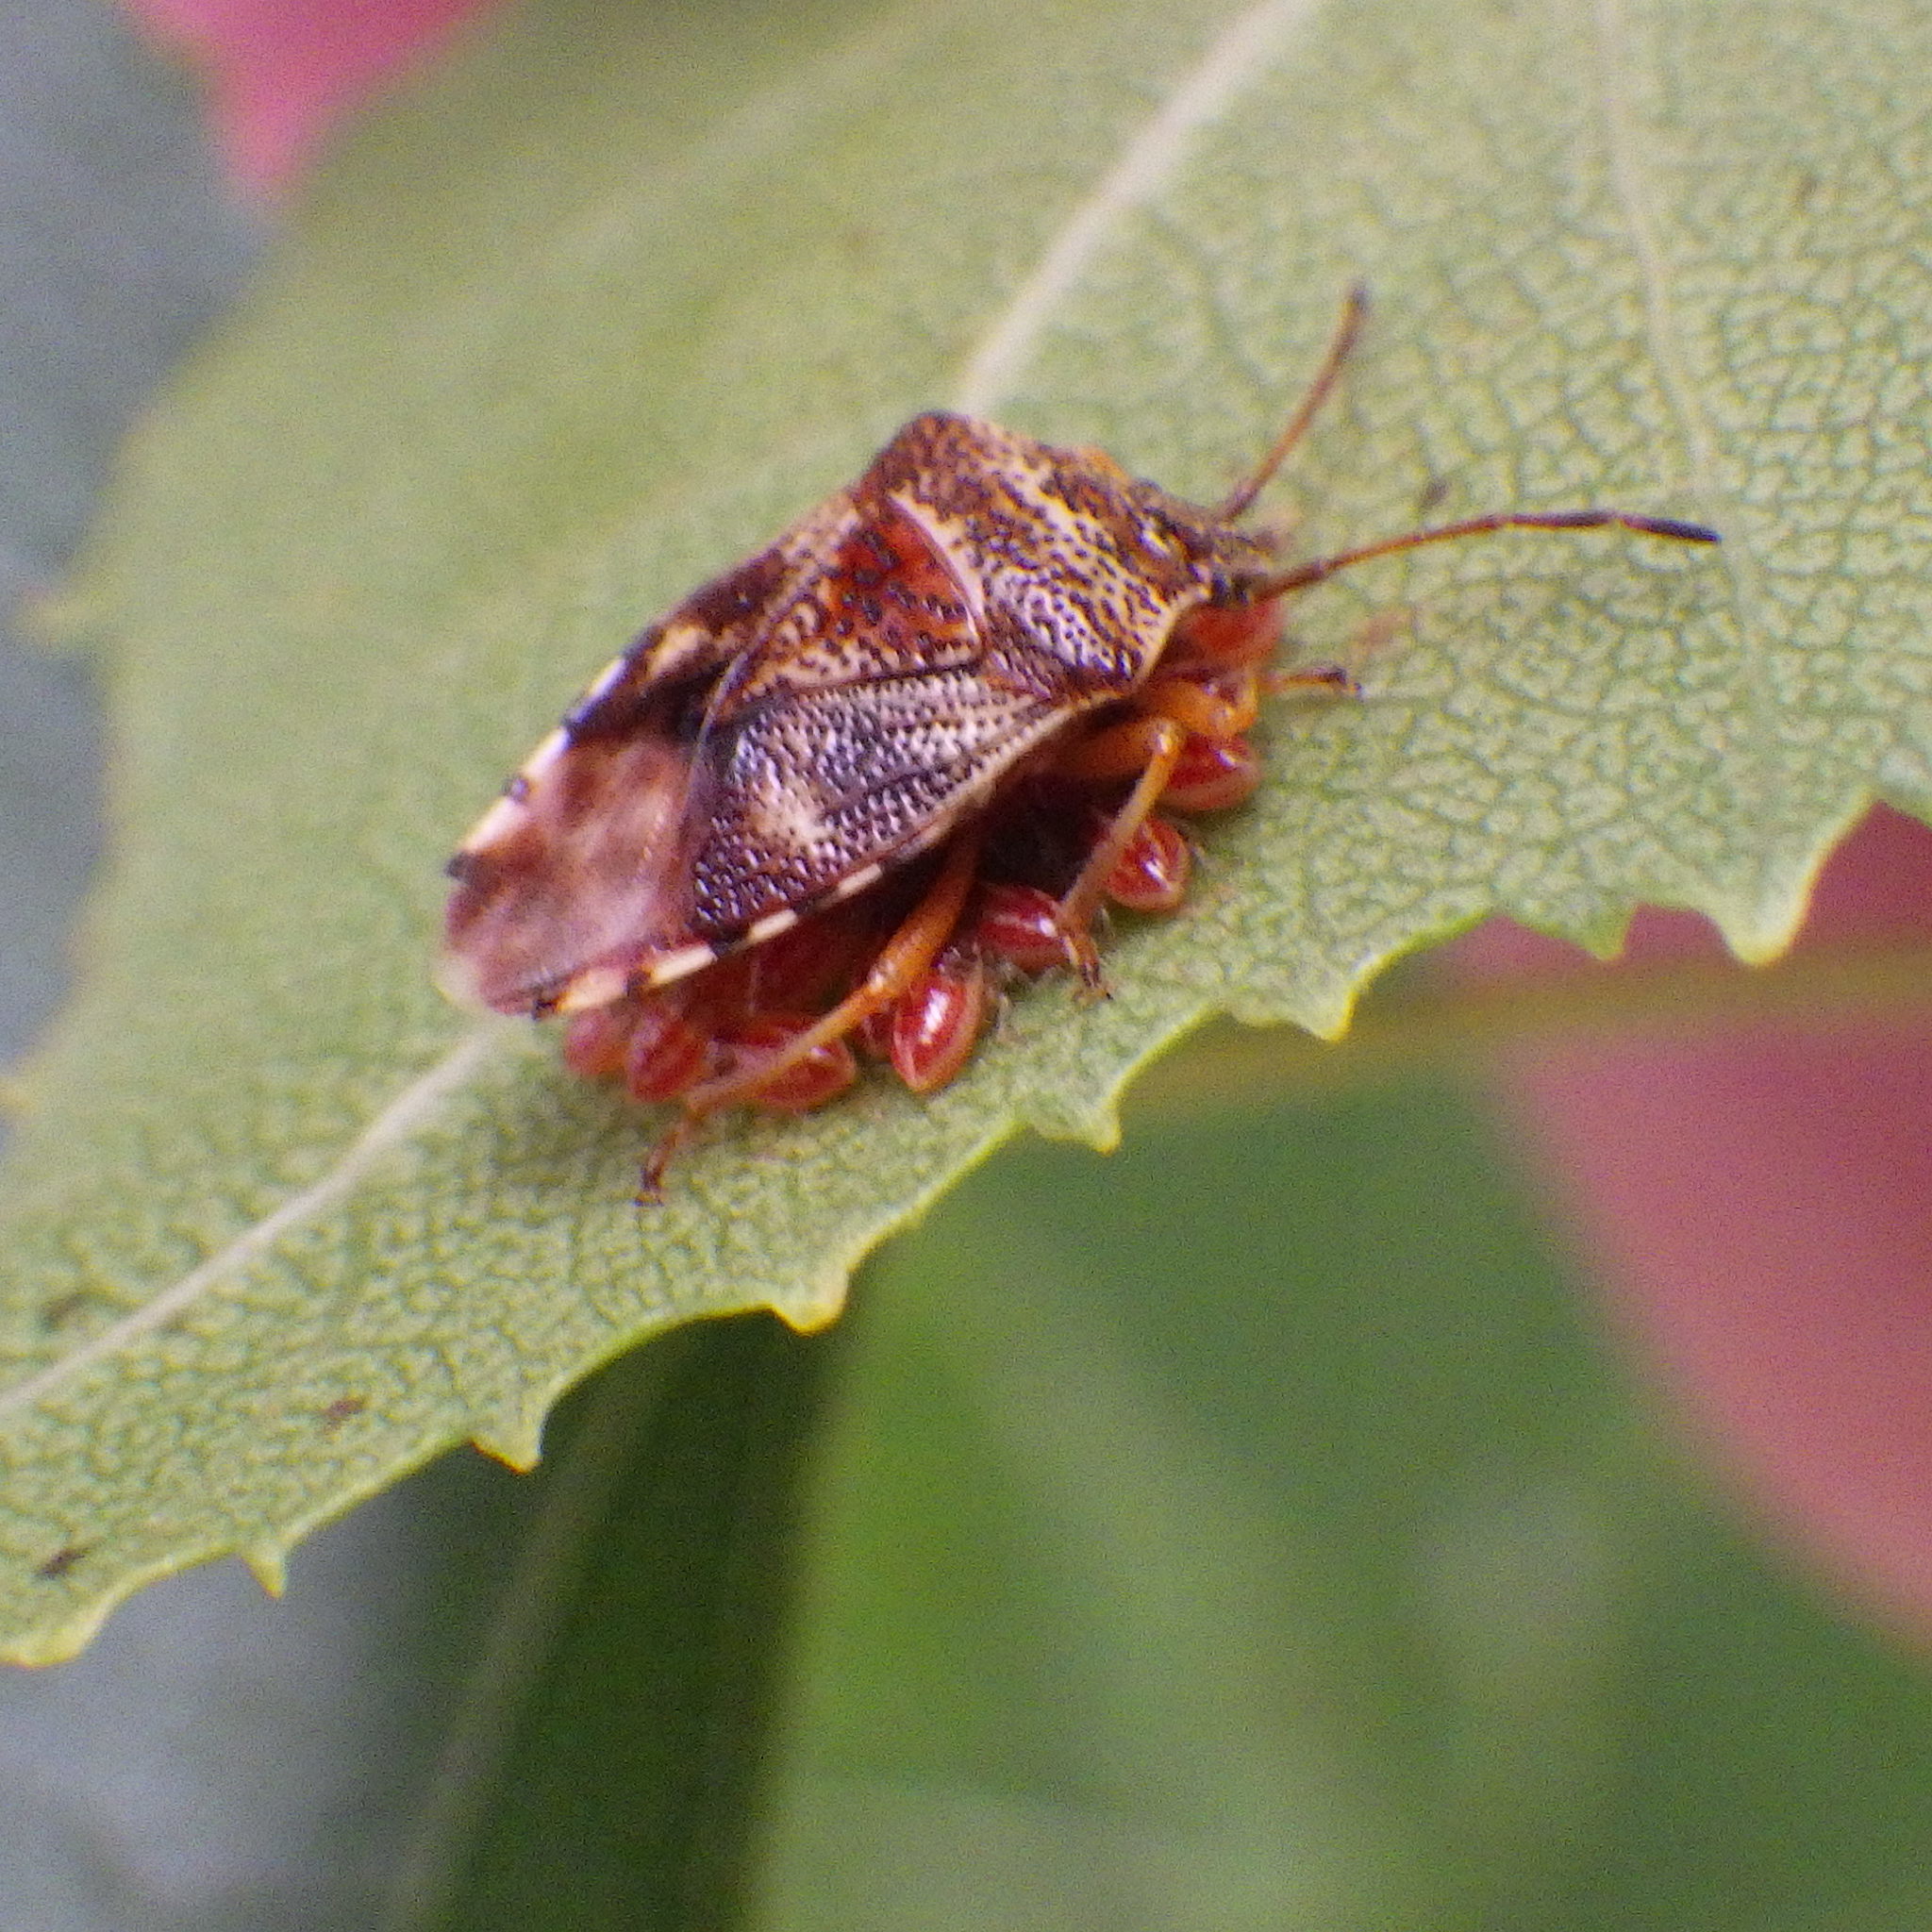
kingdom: Animalia
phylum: Arthropoda
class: Insecta
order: Hemiptera
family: Acanthosomatidae
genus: Elasmucha
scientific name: Elasmucha lateralis
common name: Shield bug
